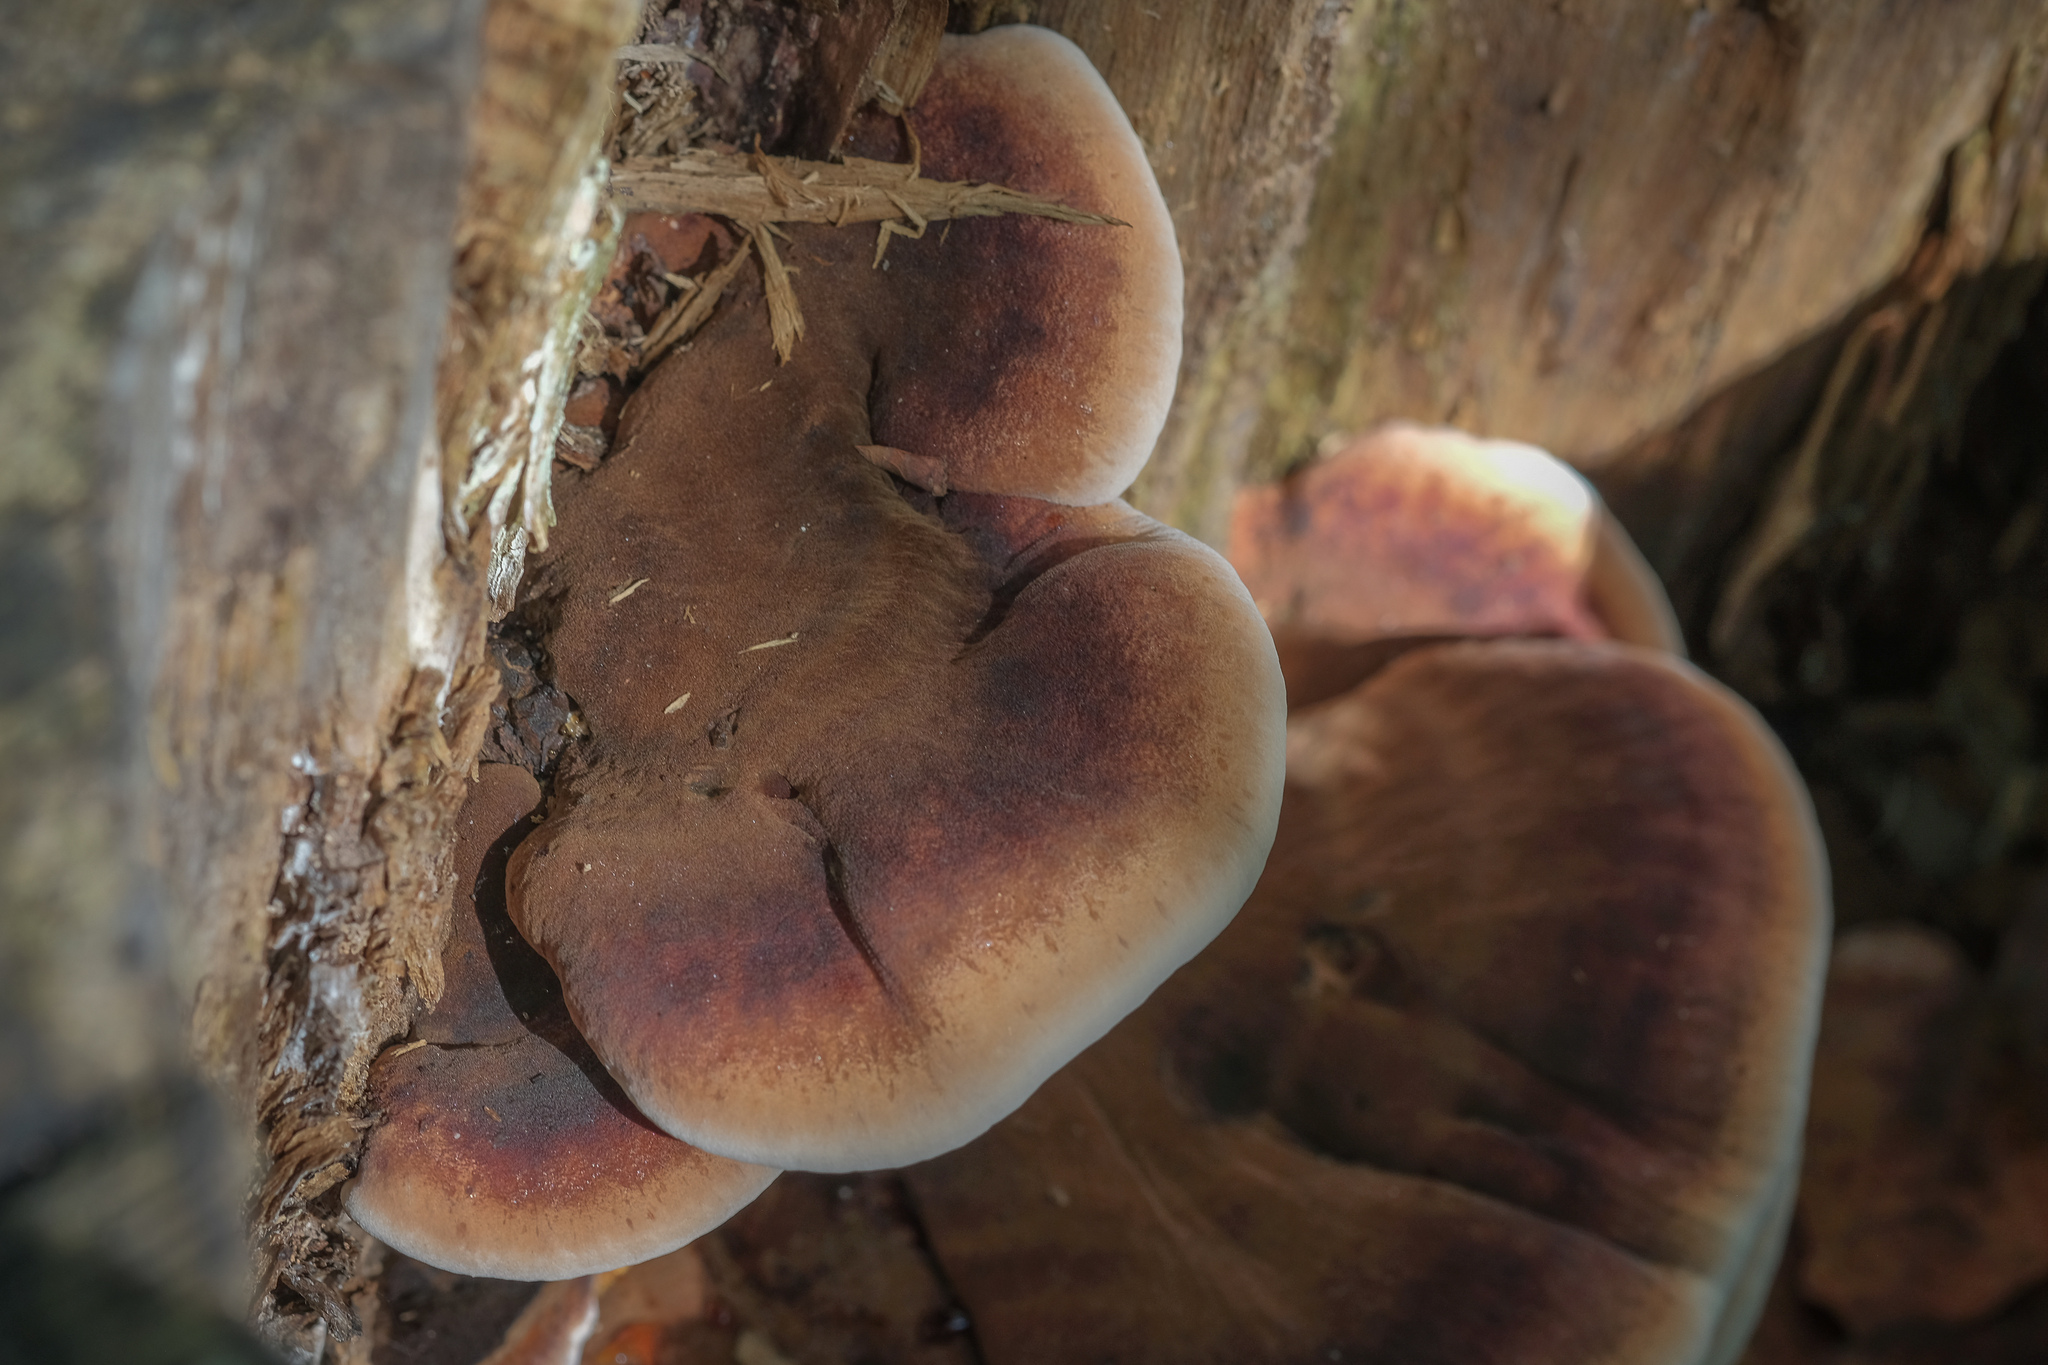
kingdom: Fungi
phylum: Basidiomycota
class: Agaricomycetes
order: Polyporales
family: Ischnodermataceae
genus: Ischnoderma
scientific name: Ischnoderma resinosum
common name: Resinous polypore
